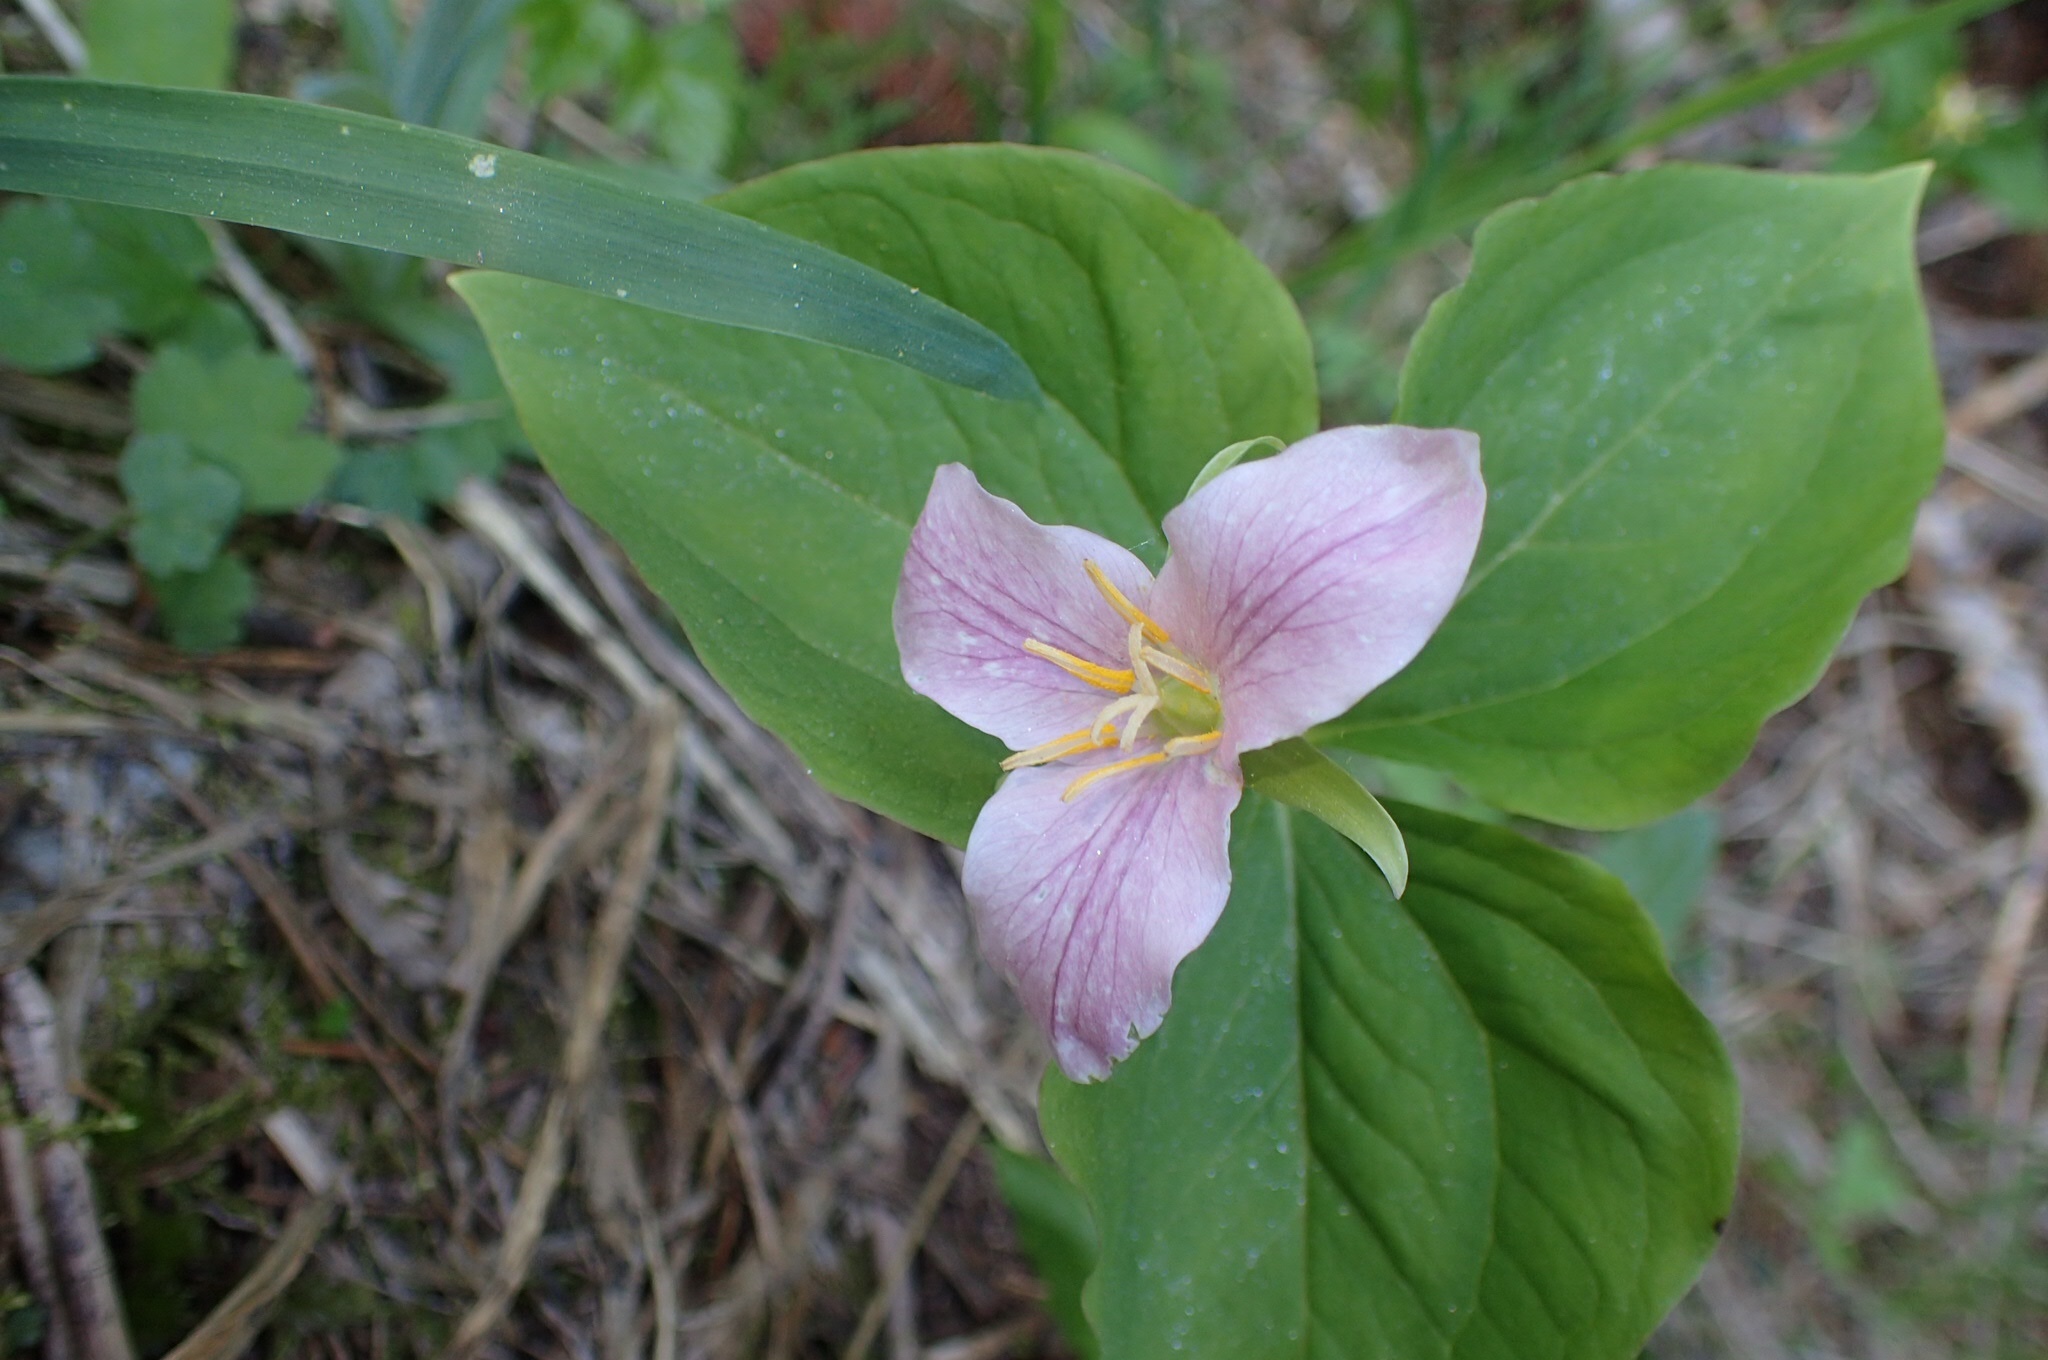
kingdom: Plantae
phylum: Tracheophyta
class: Liliopsida
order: Liliales
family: Melanthiaceae
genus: Trillium
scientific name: Trillium ovatum
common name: Pacific trillium
